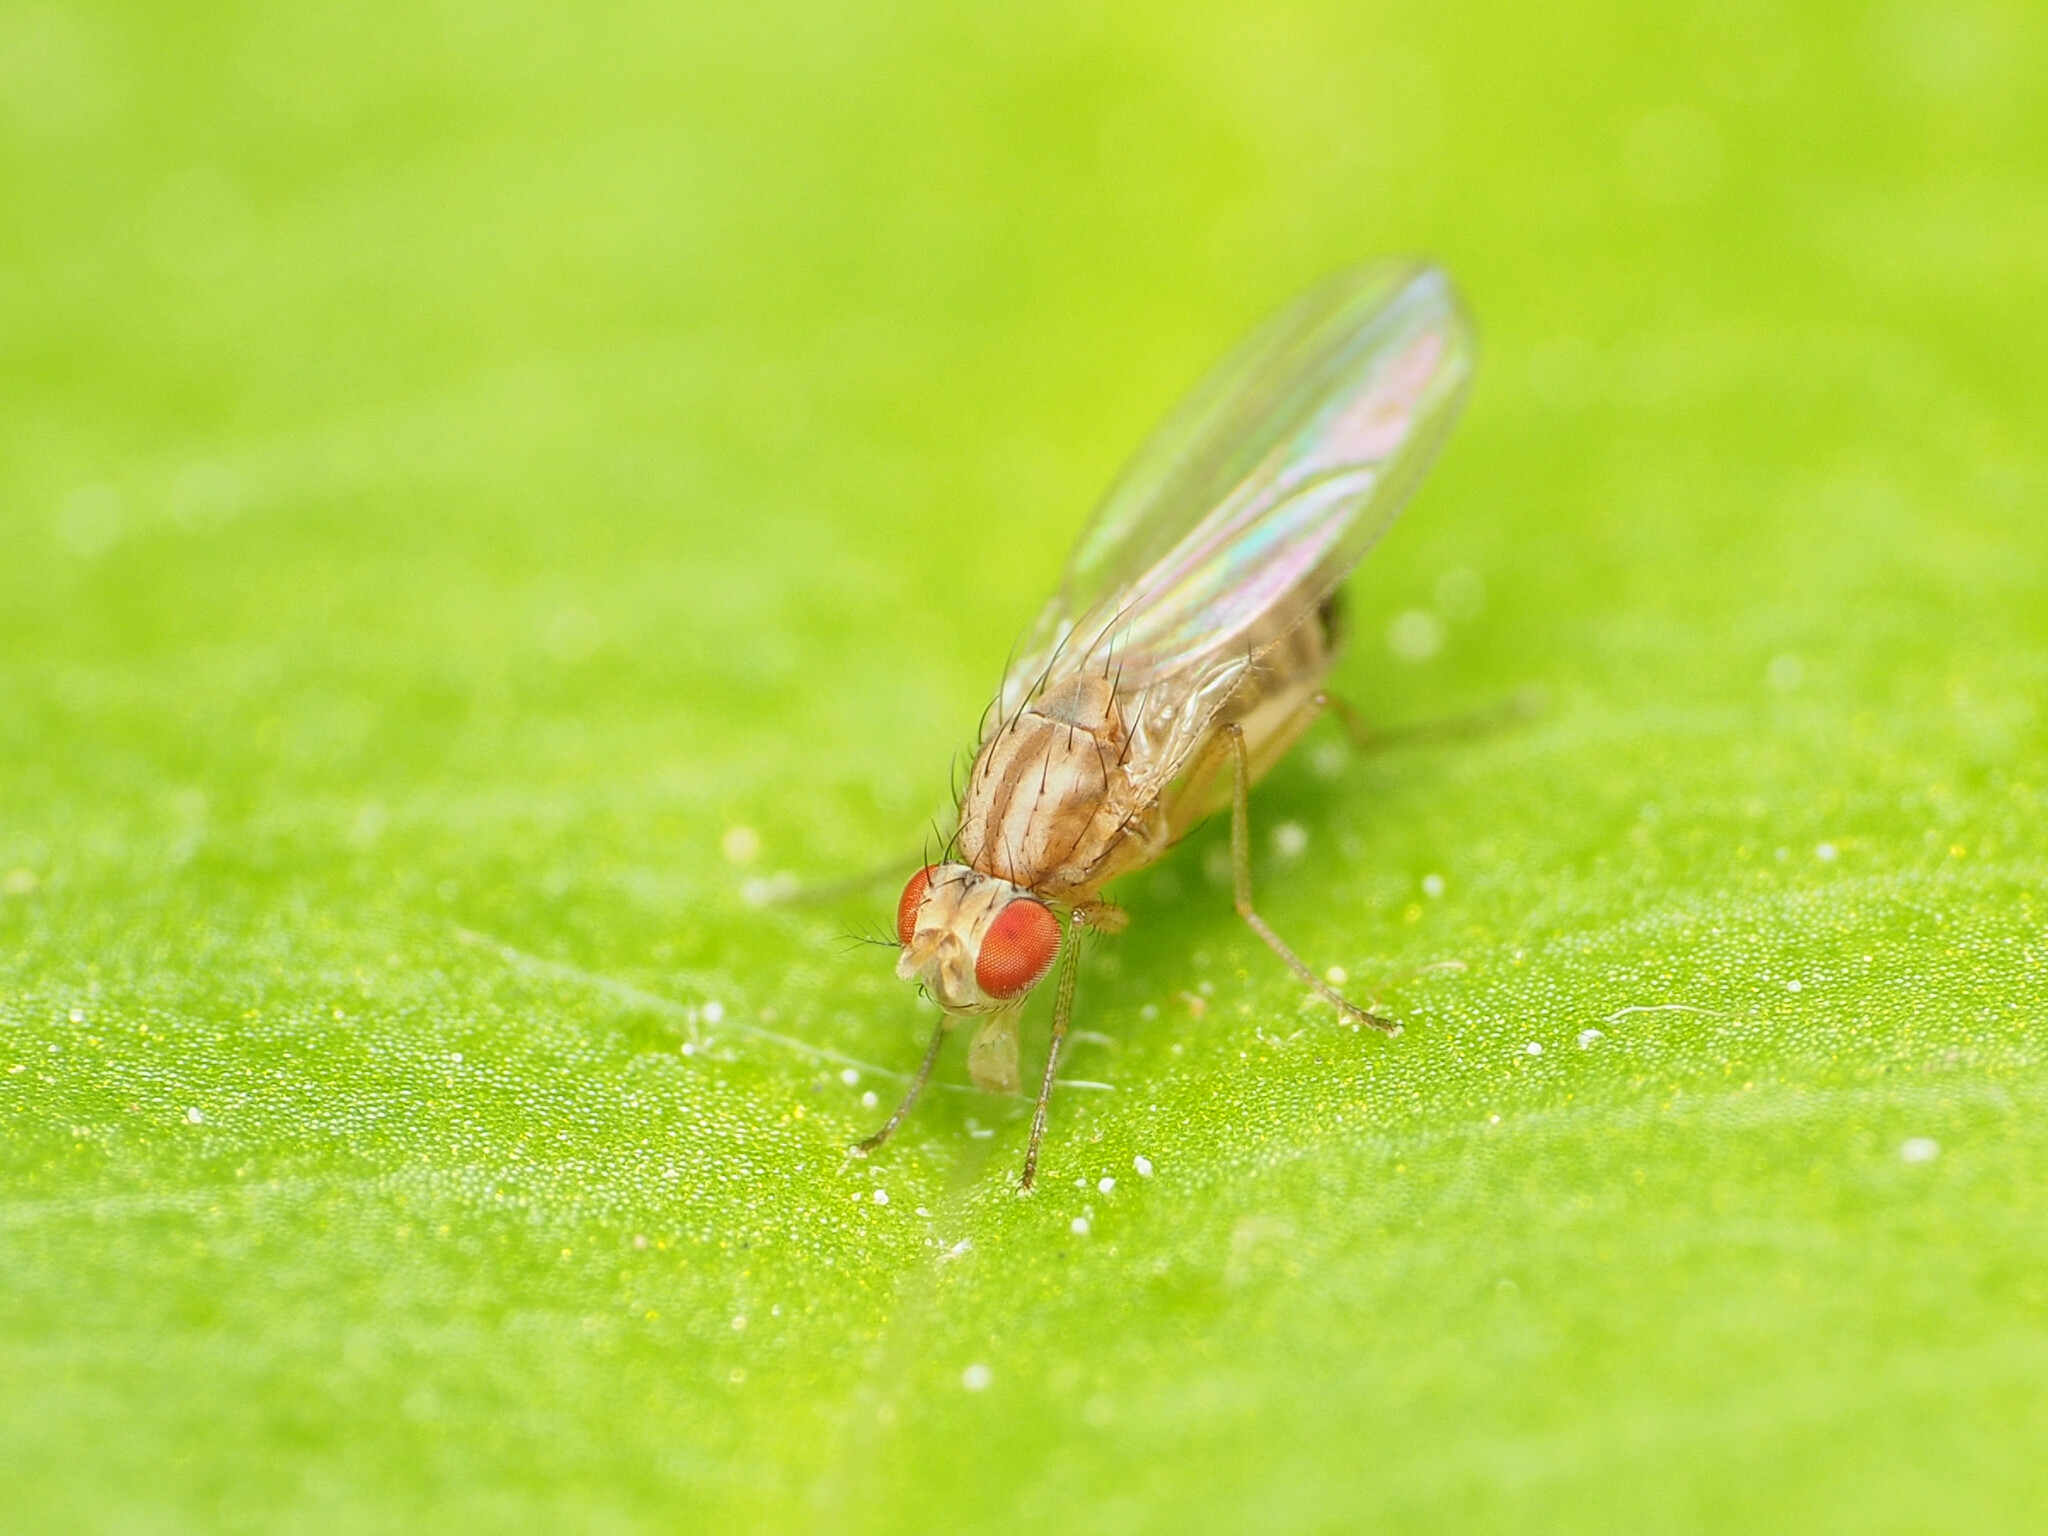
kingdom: Animalia
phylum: Arthropoda
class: Insecta
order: Diptera
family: Drosophilidae
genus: Scaptomyza
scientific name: Scaptomyza pallida
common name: Pomace fly
